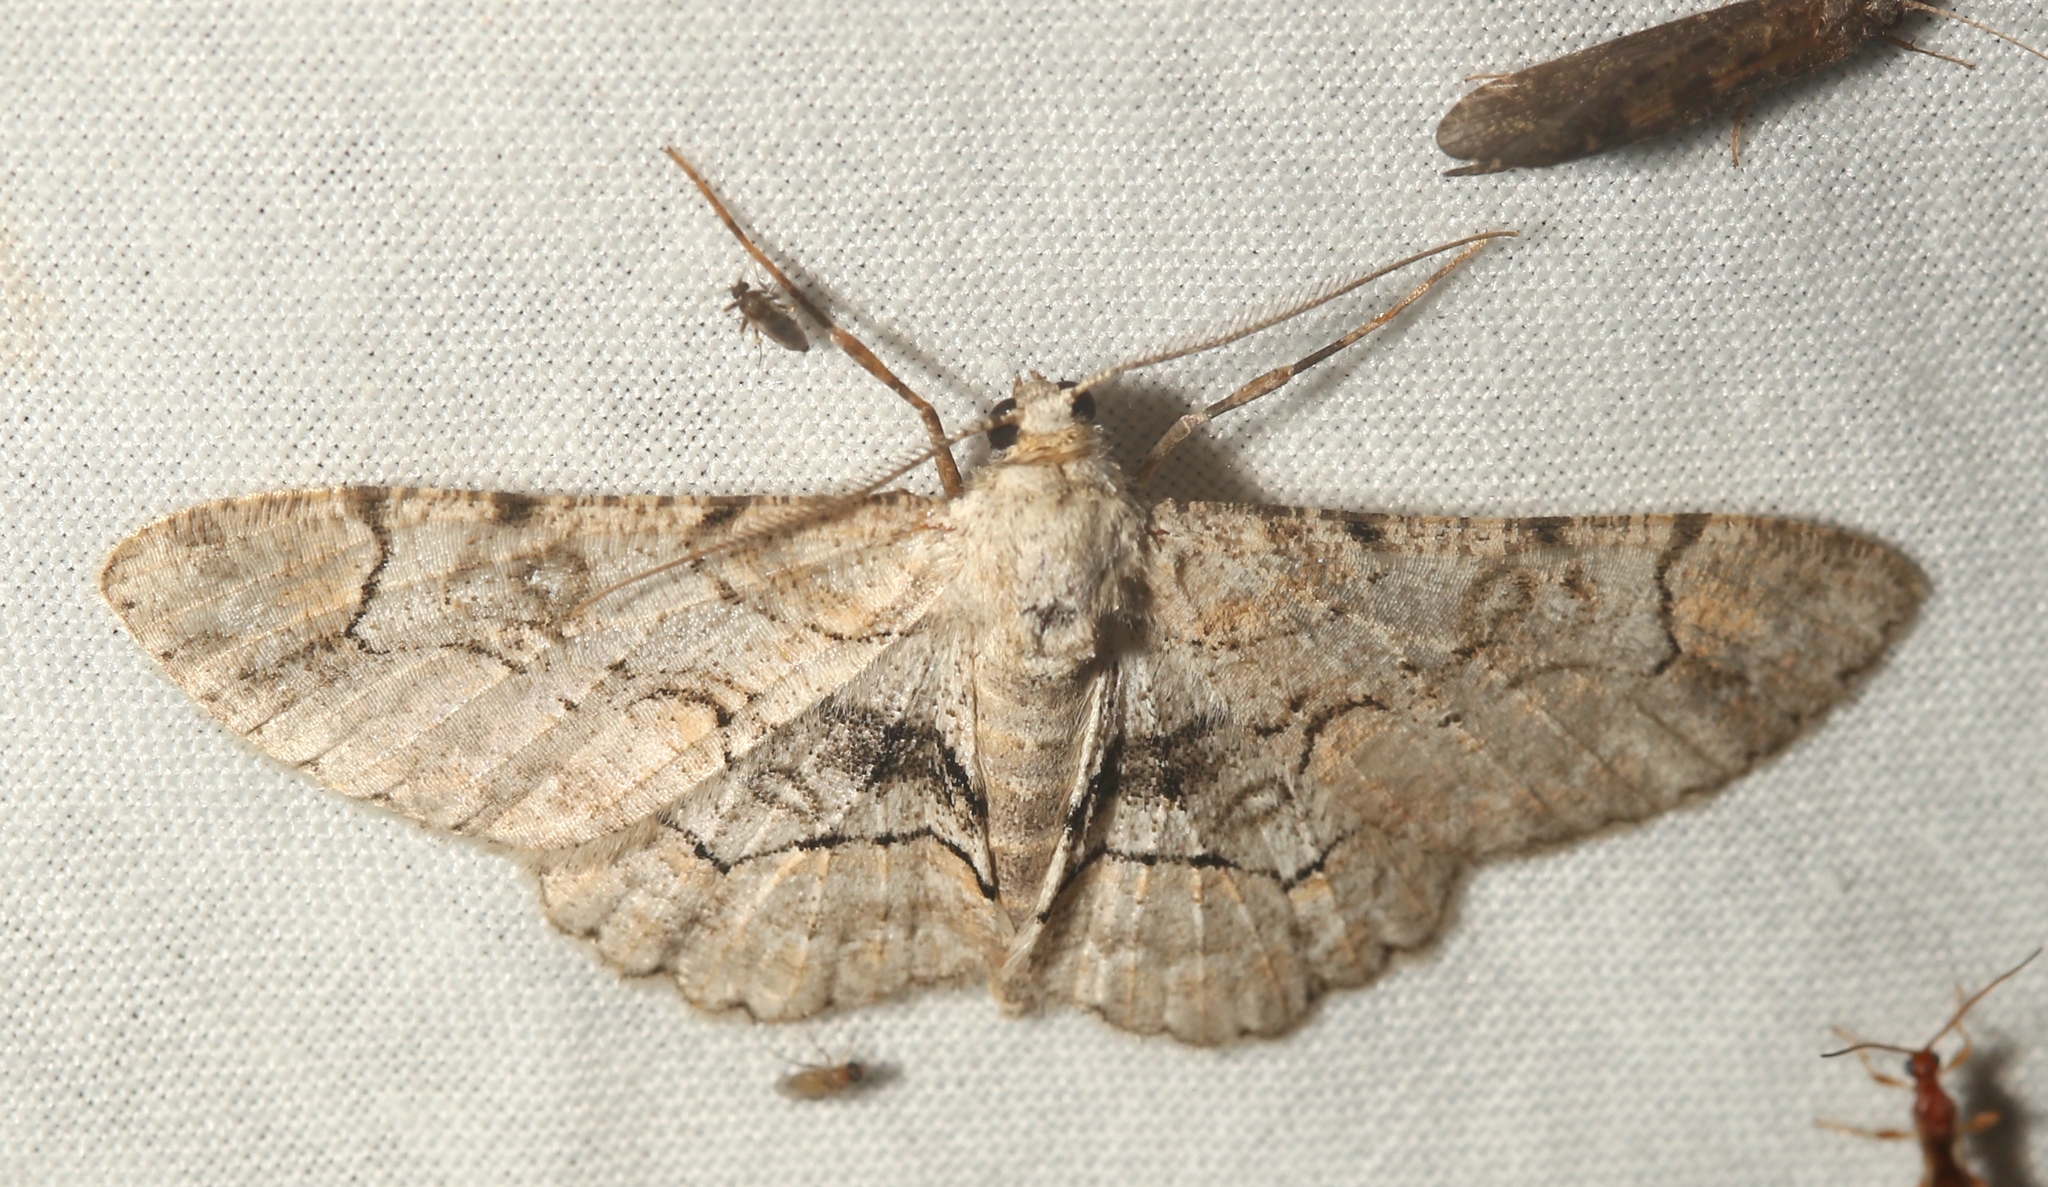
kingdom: Animalia
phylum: Arthropoda
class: Insecta
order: Lepidoptera
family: Geometridae
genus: Iridopsis
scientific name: Iridopsis larvaria
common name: Bent-line gray
